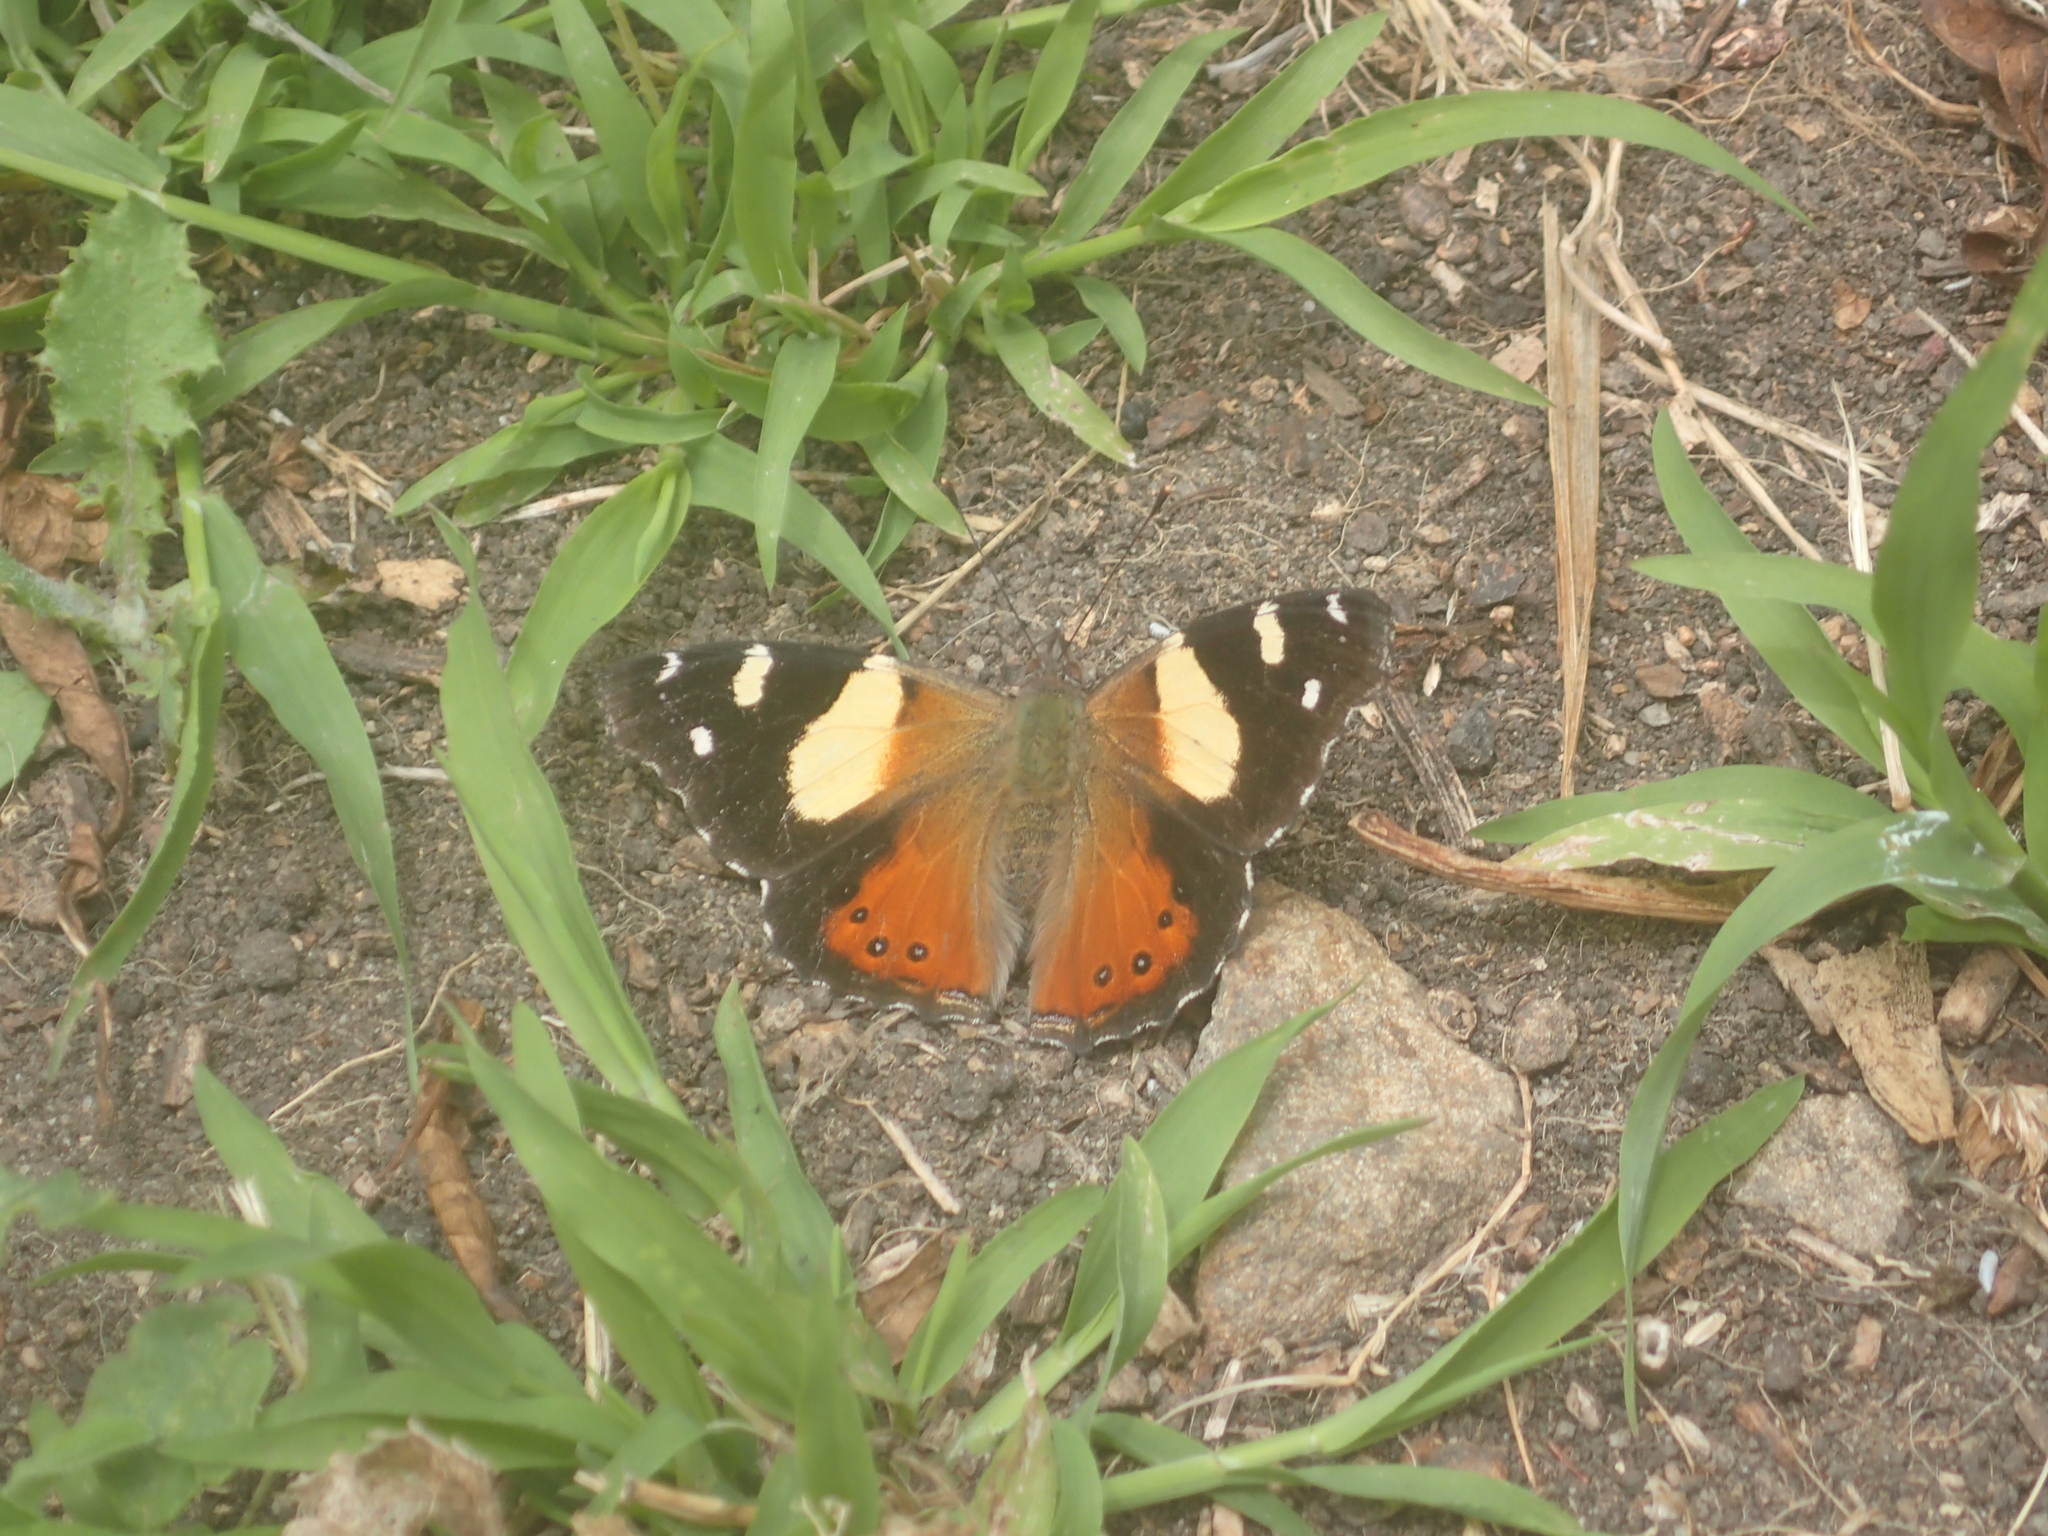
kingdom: Animalia
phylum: Arthropoda
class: Insecta
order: Lepidoptera
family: Nymphalidae
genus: Vanessa
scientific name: Vanessa itea
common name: Yellow admiral
